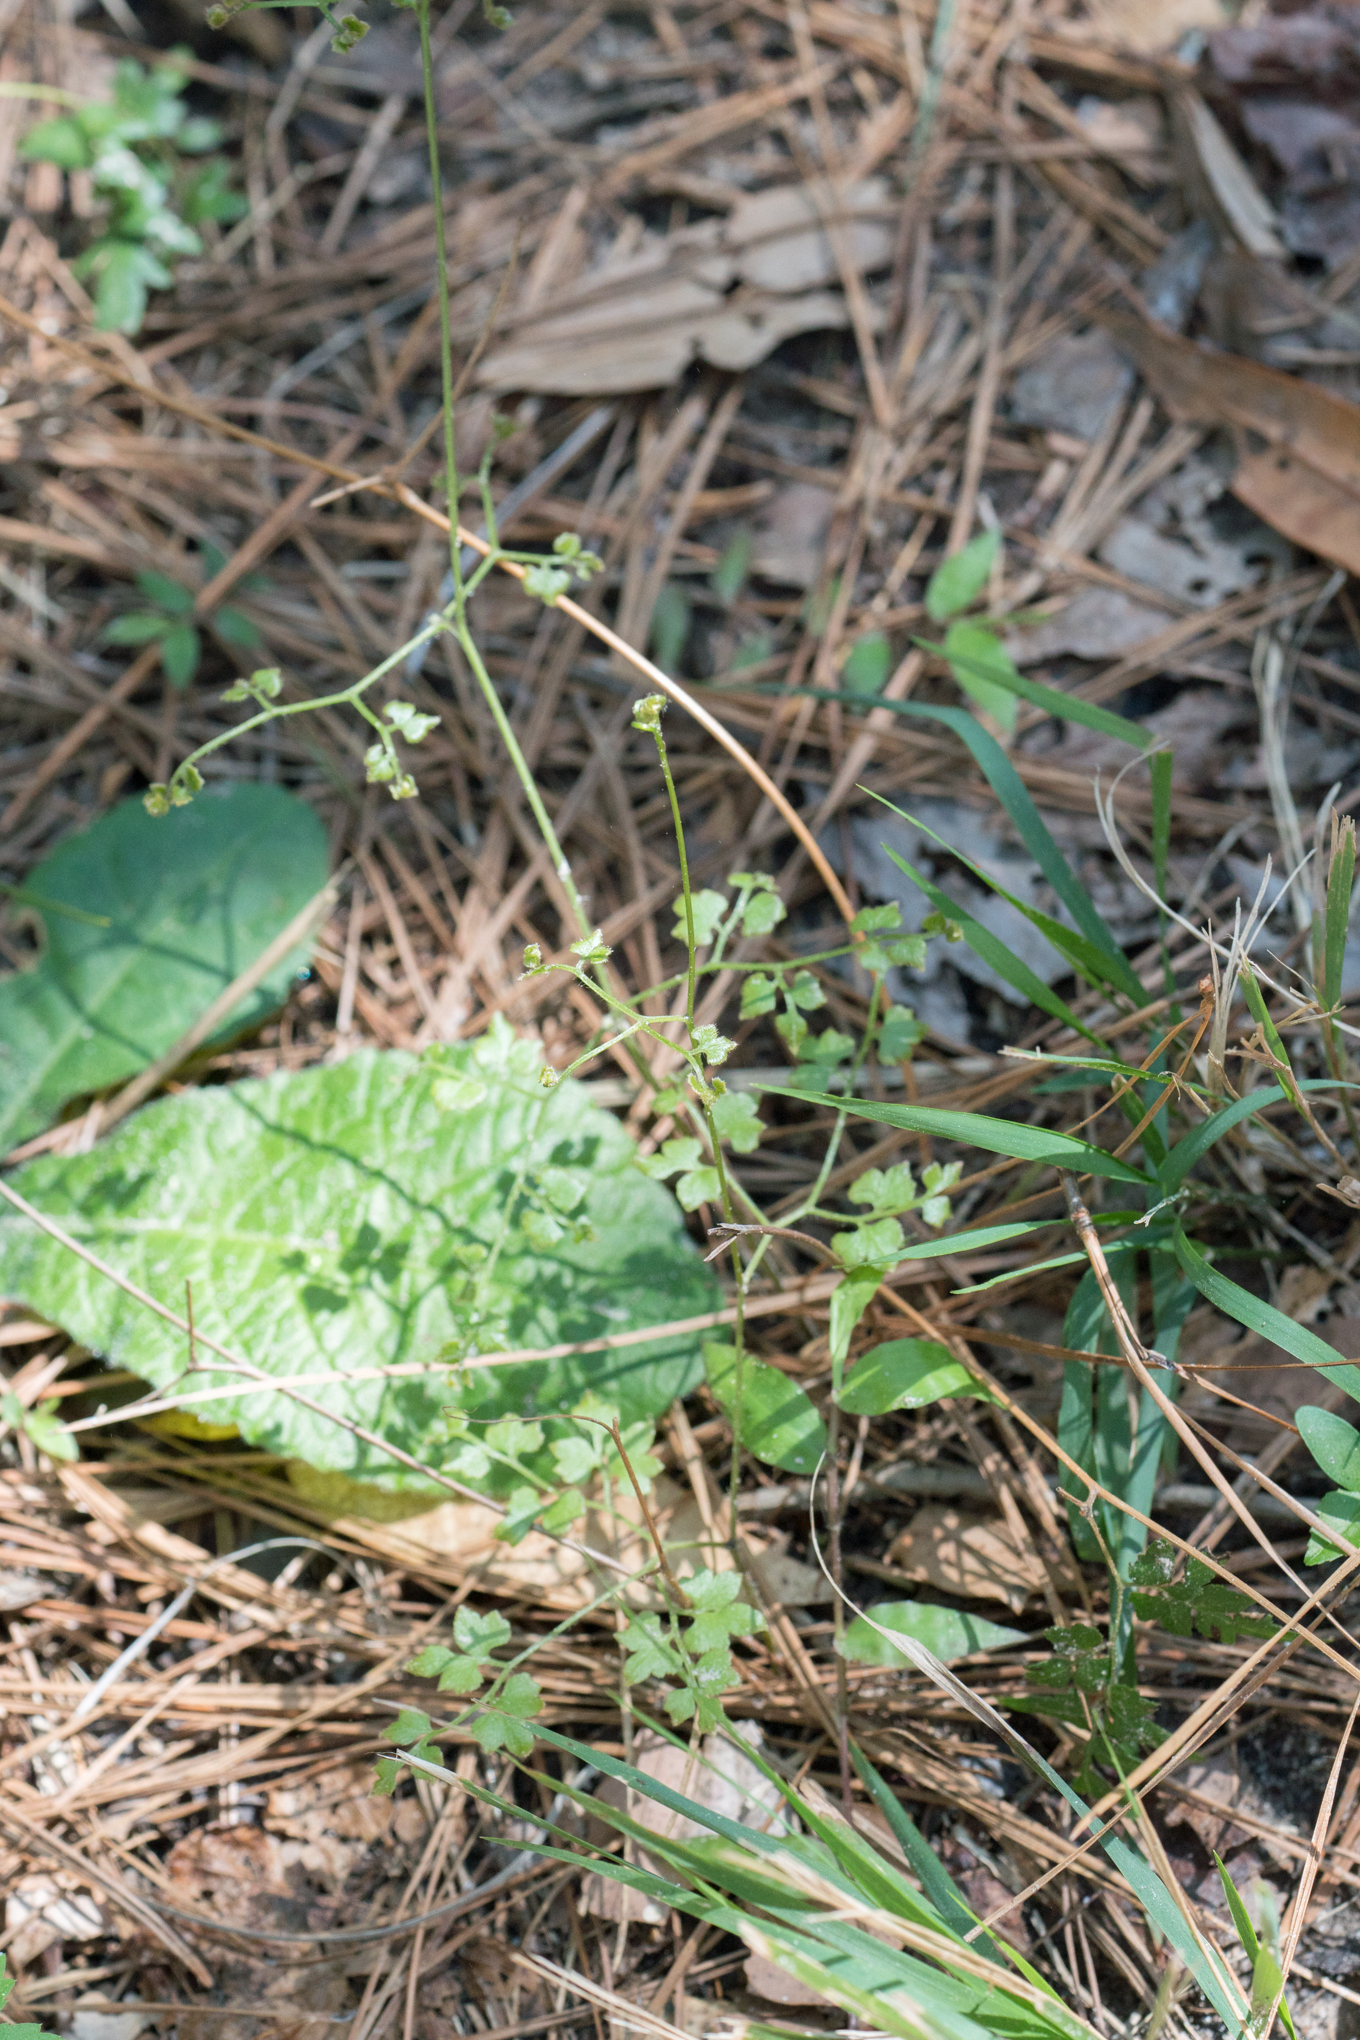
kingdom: Plantae
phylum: Tracheophyta
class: Polypodiopsida
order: Schizaeales
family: Lygodiaceae
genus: Lygodium
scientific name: Lygodium japonicum
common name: Japanese climbing fern
